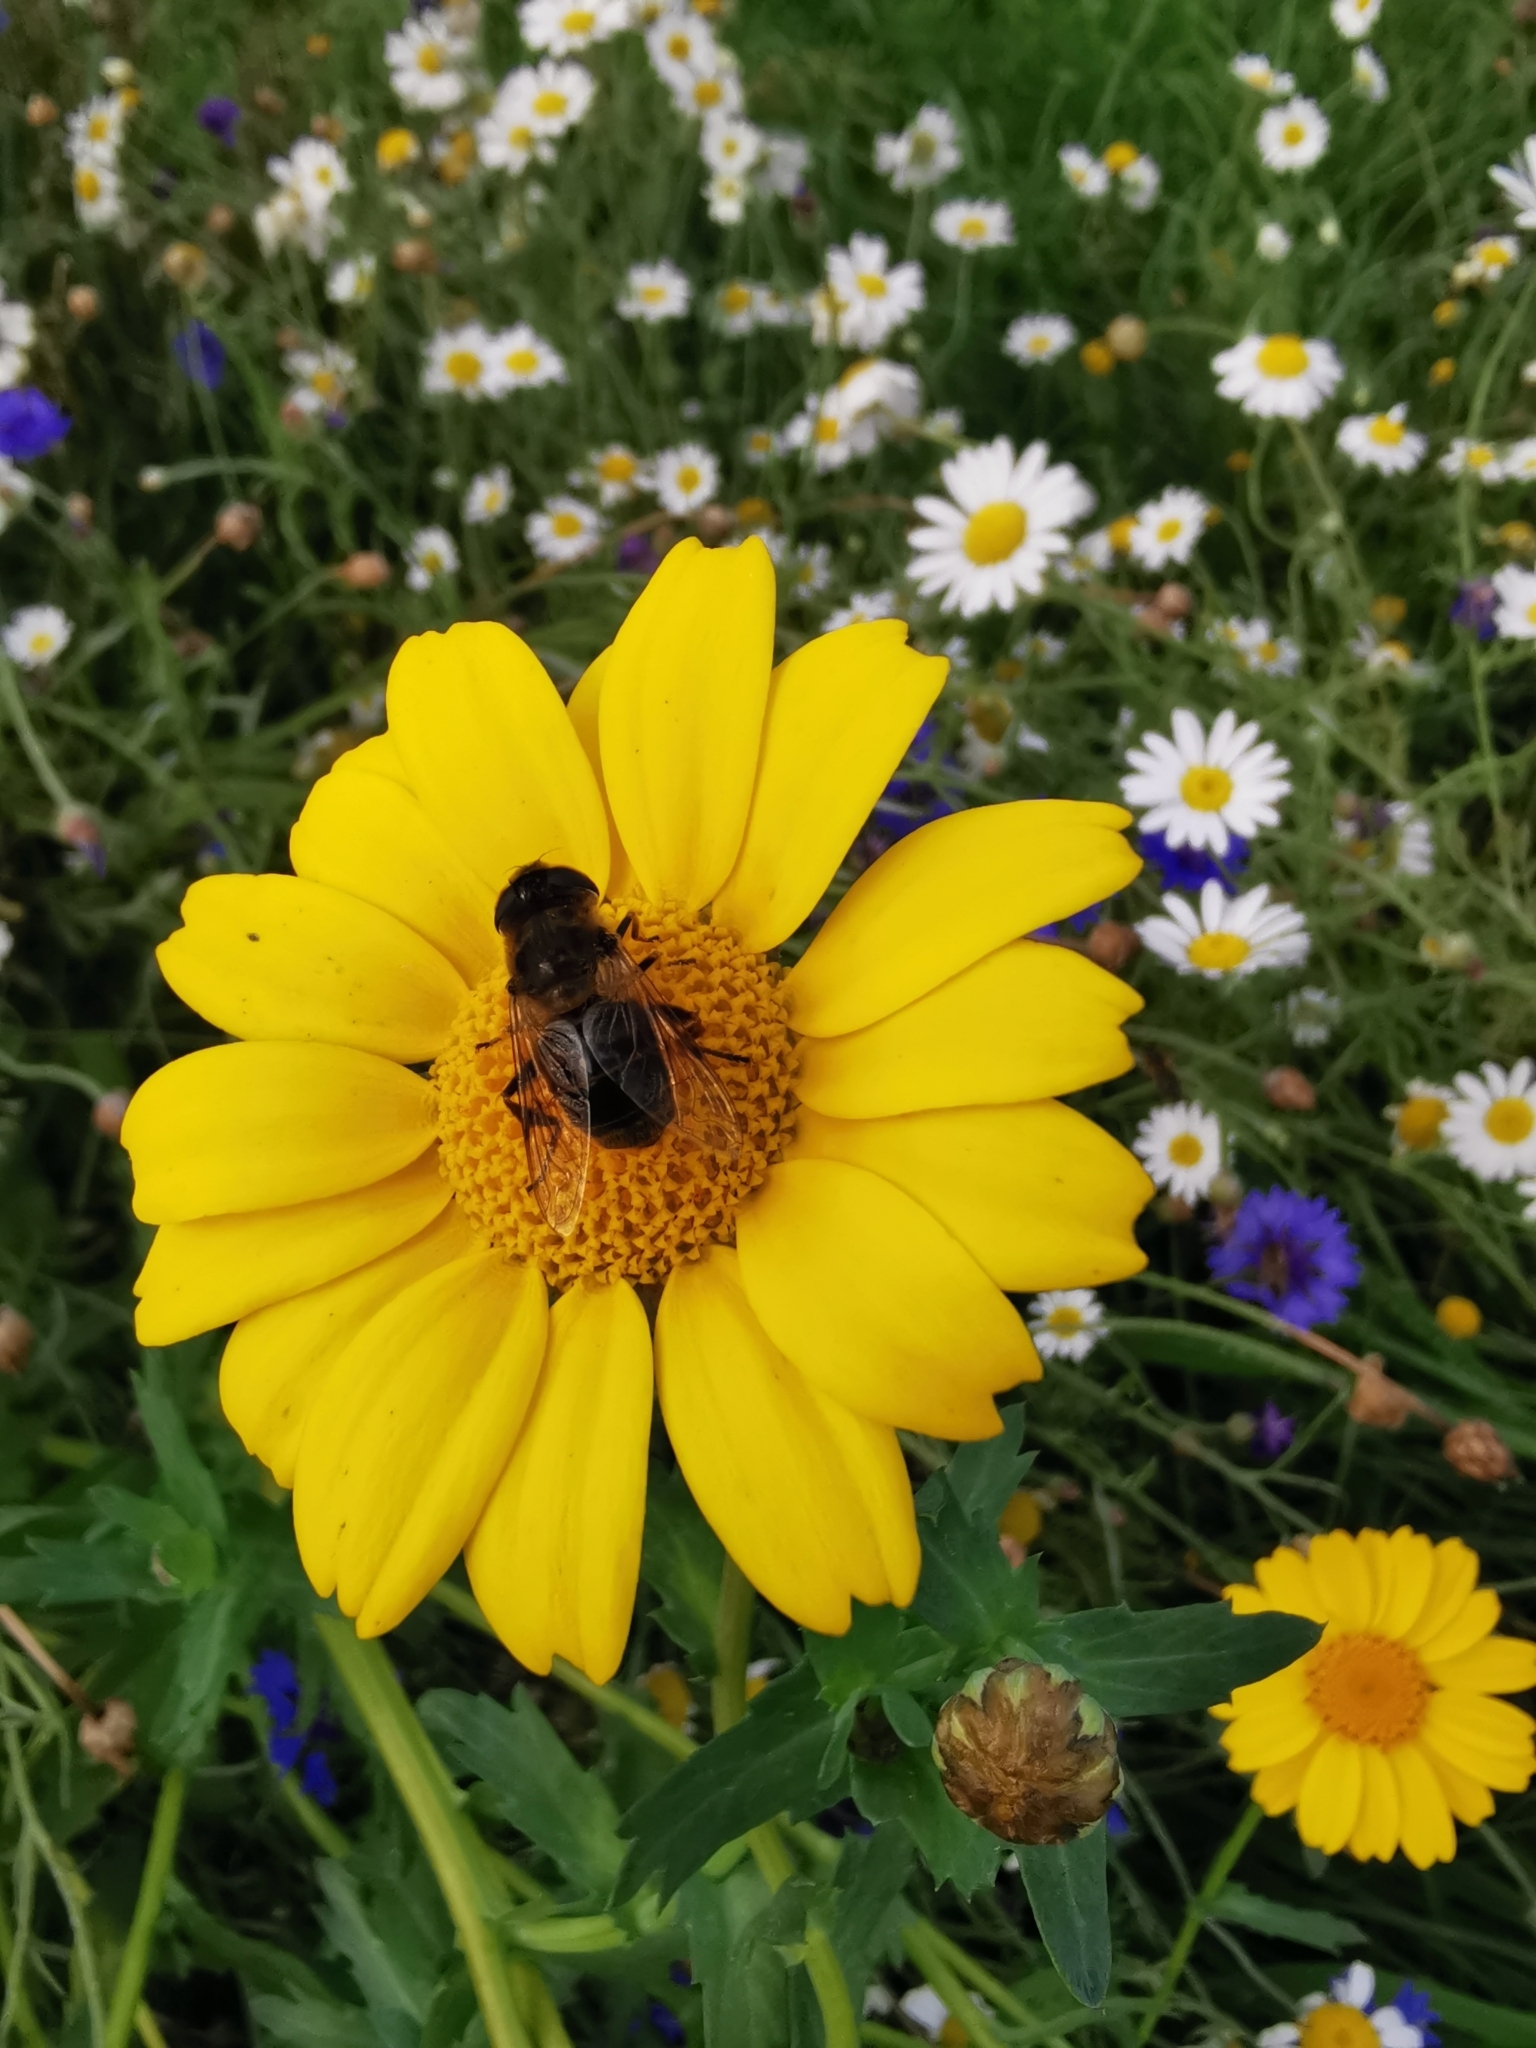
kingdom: Animalia
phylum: Arthropoda
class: Insecta
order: Diptera
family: Syrphidae
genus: Eristalis
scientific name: Eristalis tenax
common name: Drone fly
